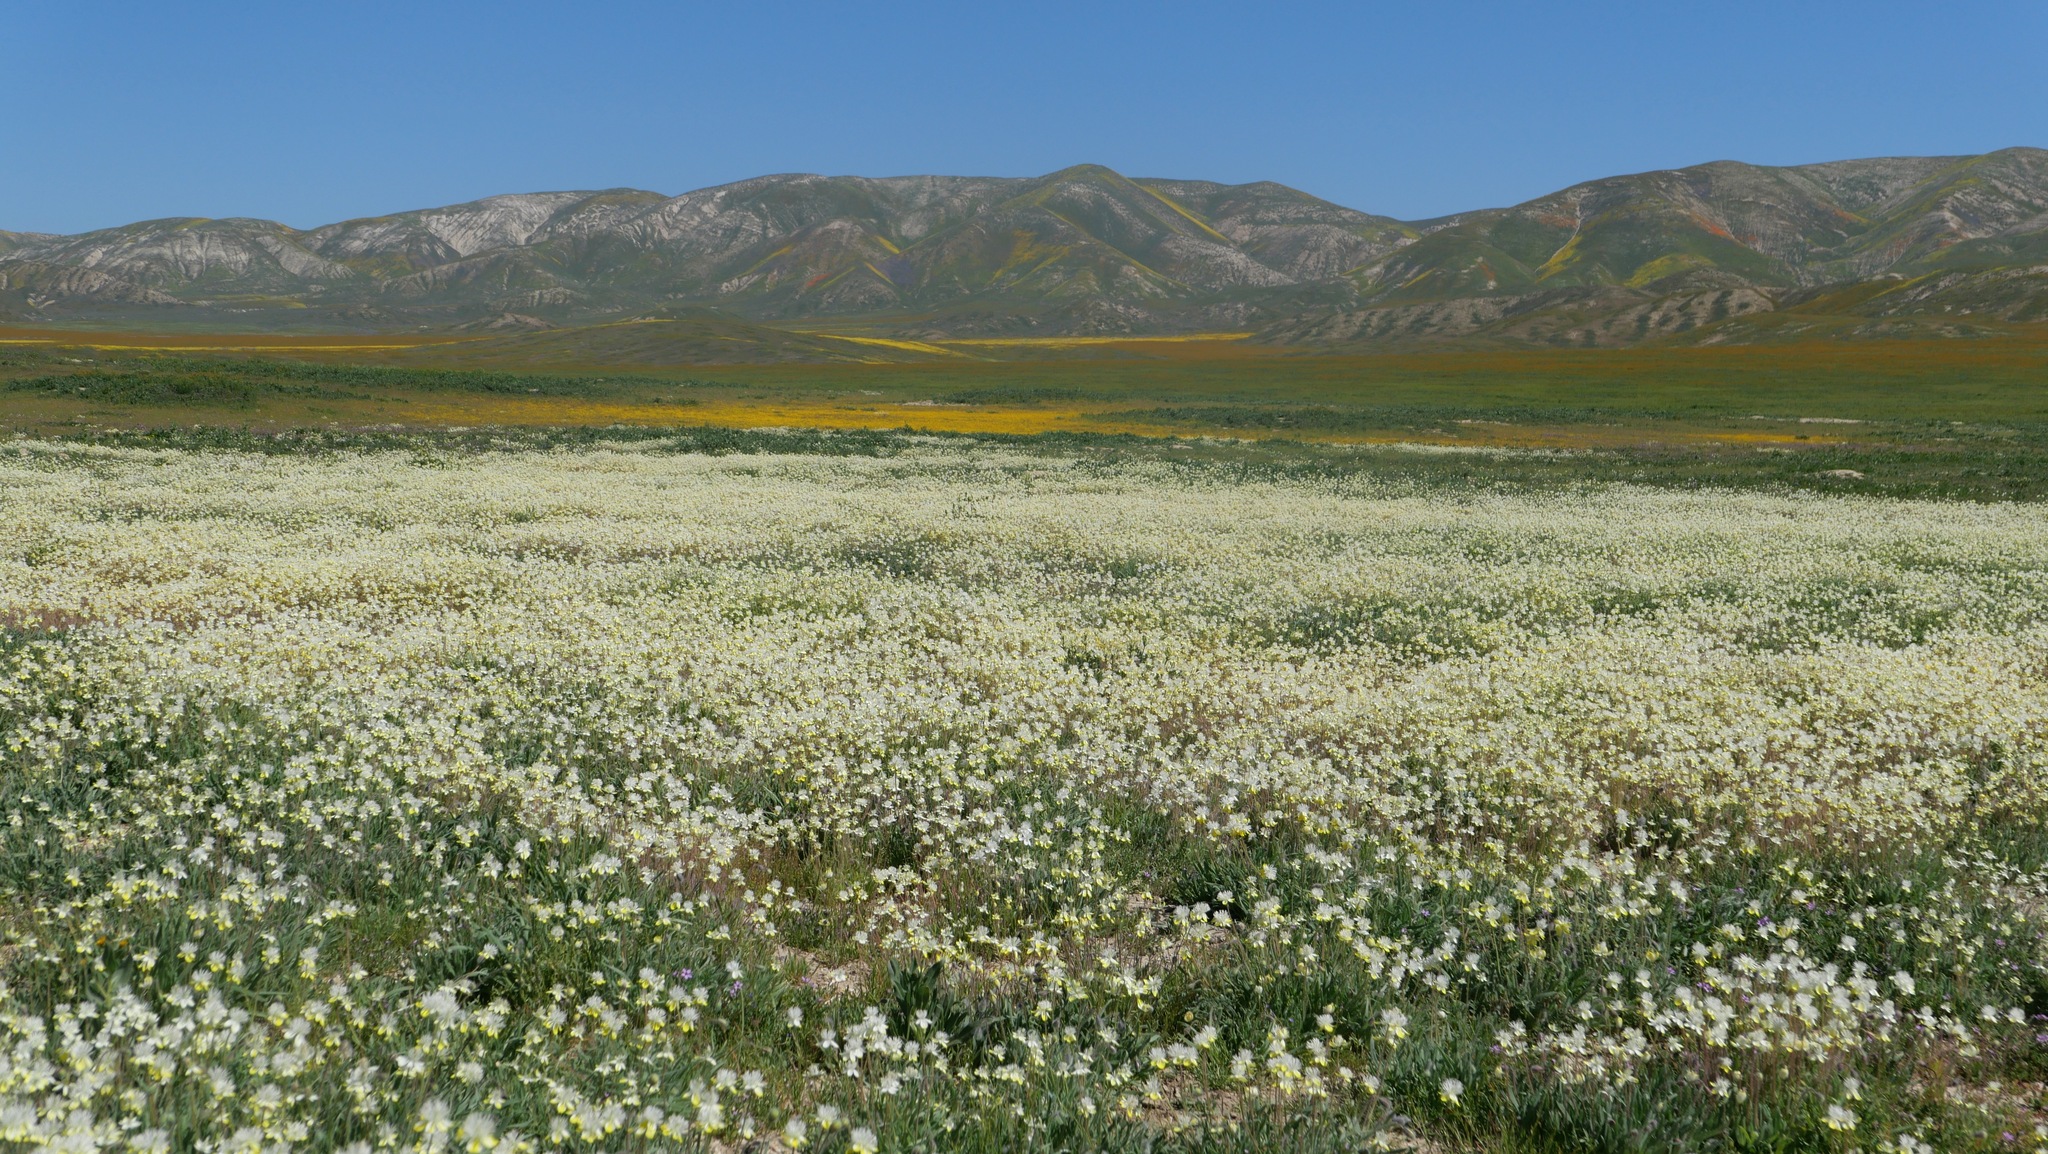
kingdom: Plantae
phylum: Tracheophyta
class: Magnoliopsida
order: Ranunculales
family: Papaveraceae
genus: Platystemon
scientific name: Platystemon californicus
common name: Cream-cups
